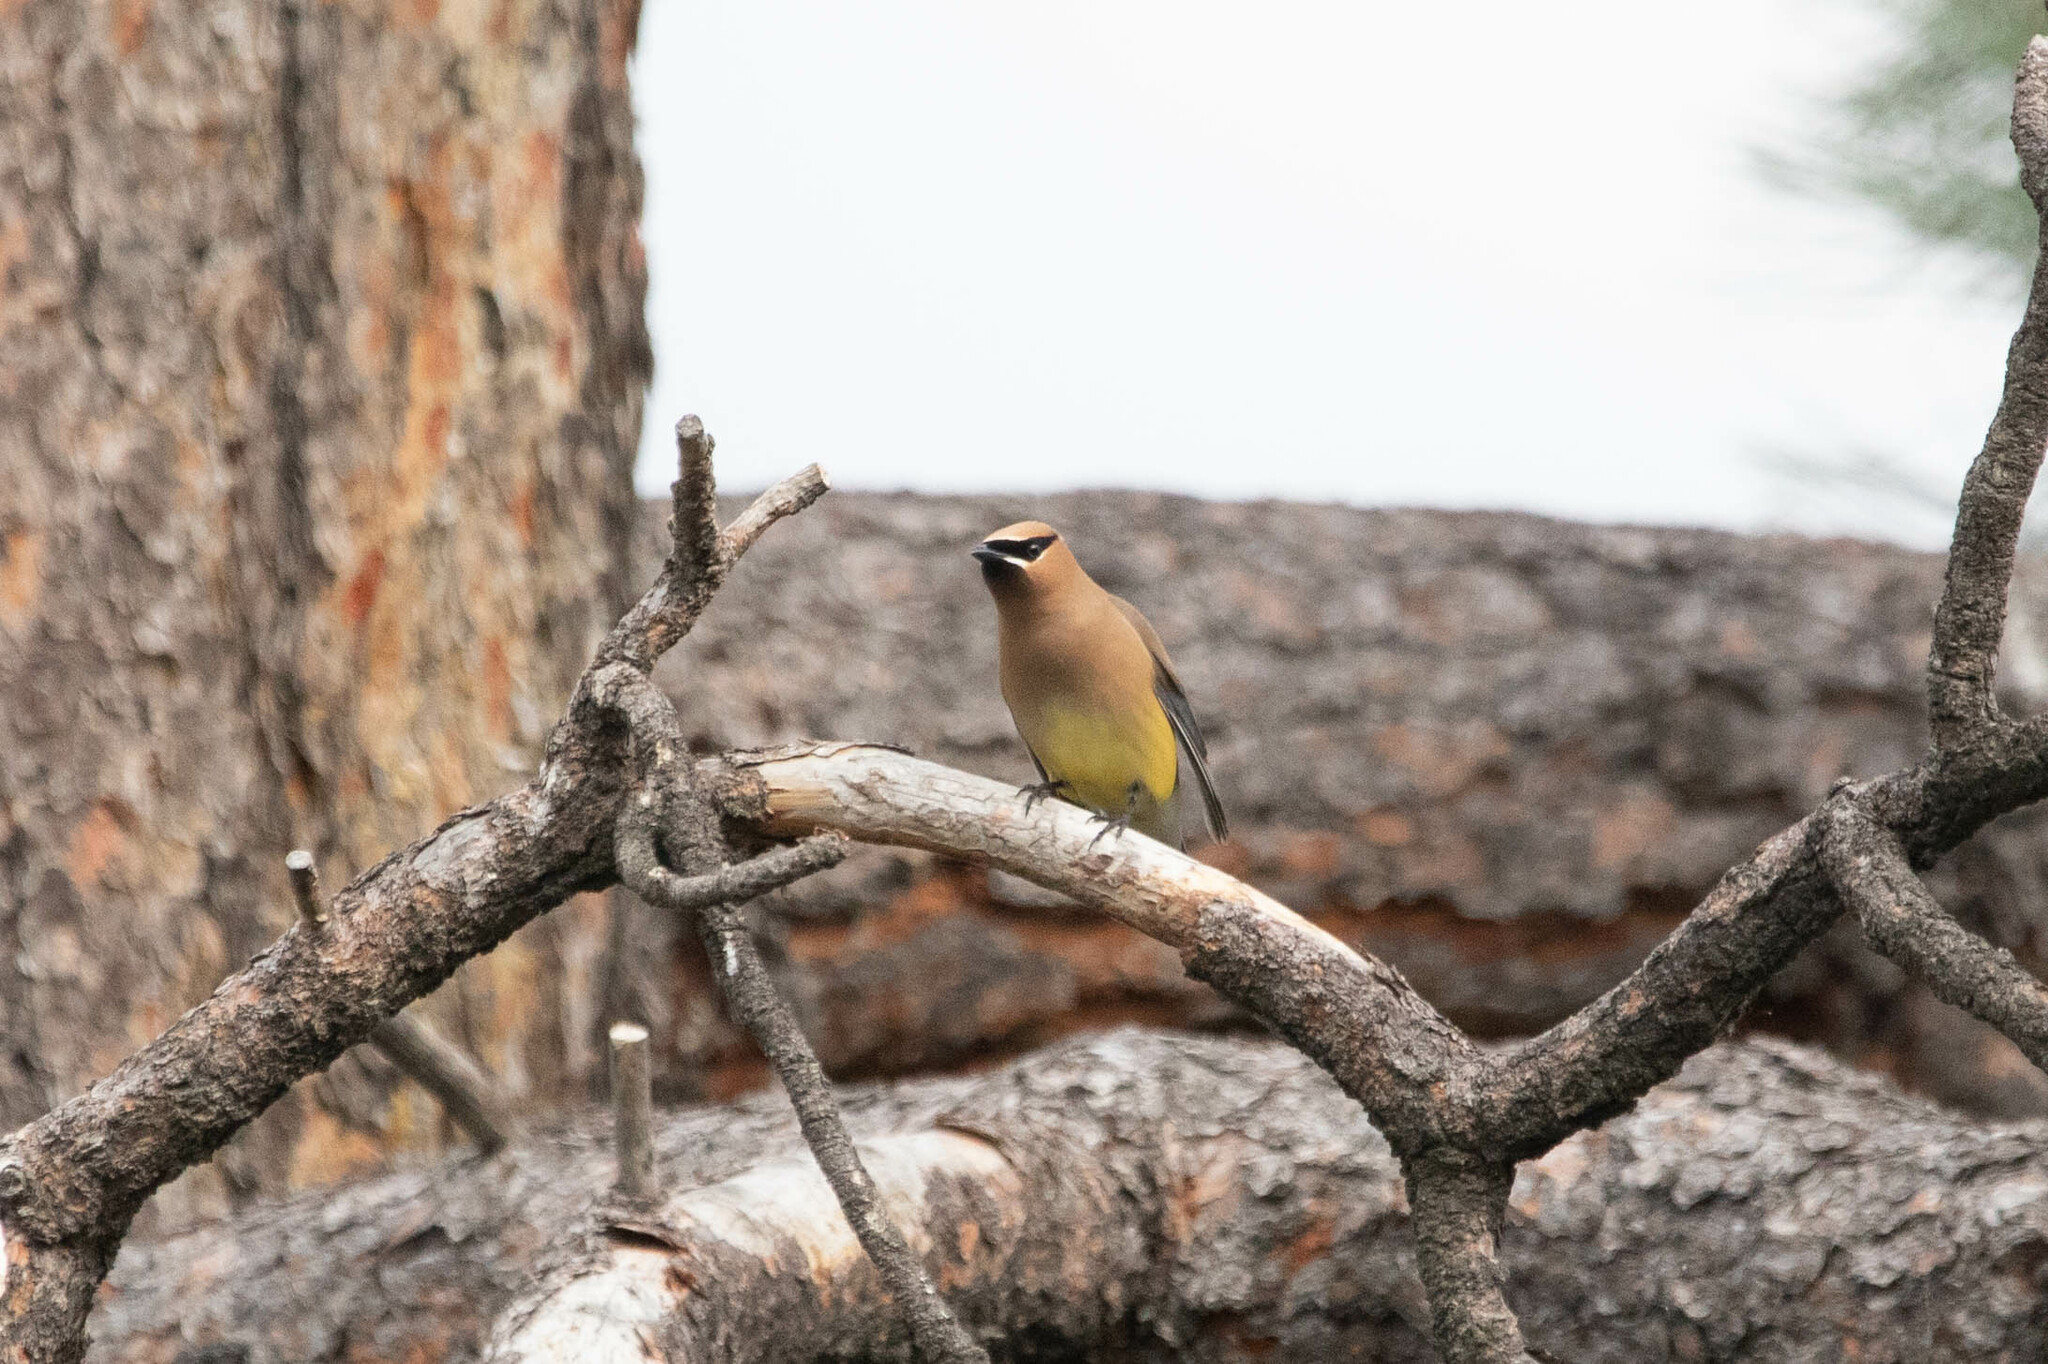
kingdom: Animalia
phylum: Chordata
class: Aves
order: Passeriformes
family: Bombycillidae
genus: Bombycilla
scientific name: Bombycilla cedrorum
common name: Cedar waxwing
